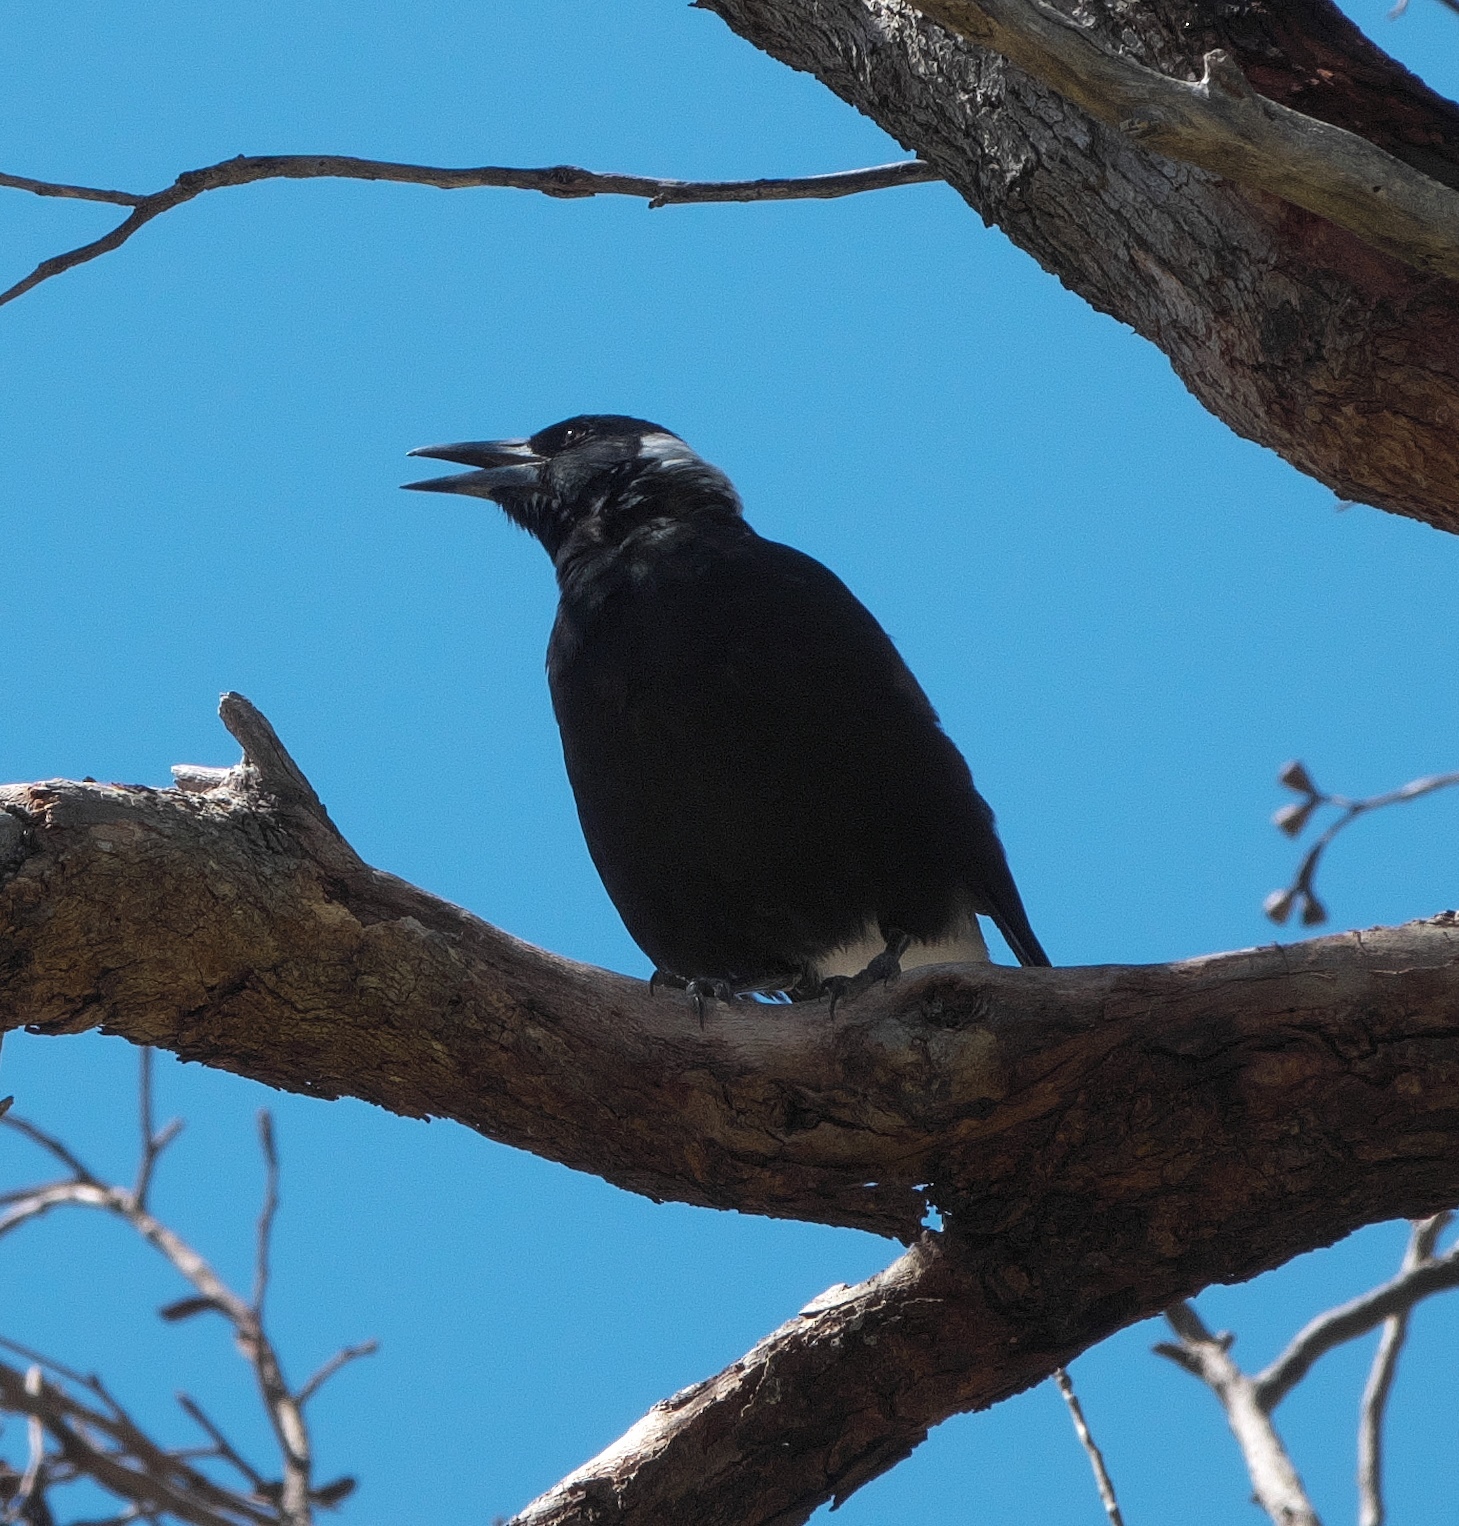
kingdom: Animalia
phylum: Chordata
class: Aves
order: Passeriformes
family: Cracticidae
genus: Gymnorhina
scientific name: Gymnorhina tibicen
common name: Australian magpie
